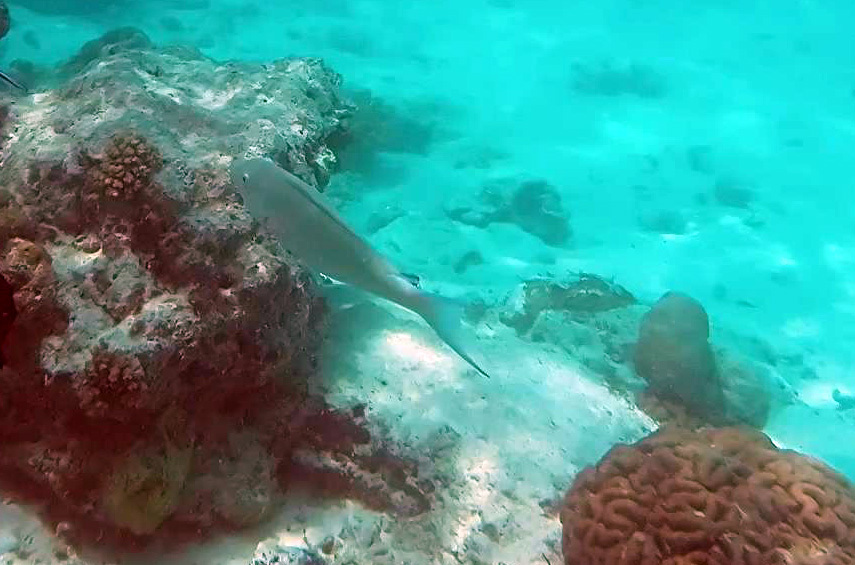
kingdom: Animalia
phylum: Chordata
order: Perciformes
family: Scaridae
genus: Hipposcarus
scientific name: Hipposcarus harid
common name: Candelamoa parrotfish
